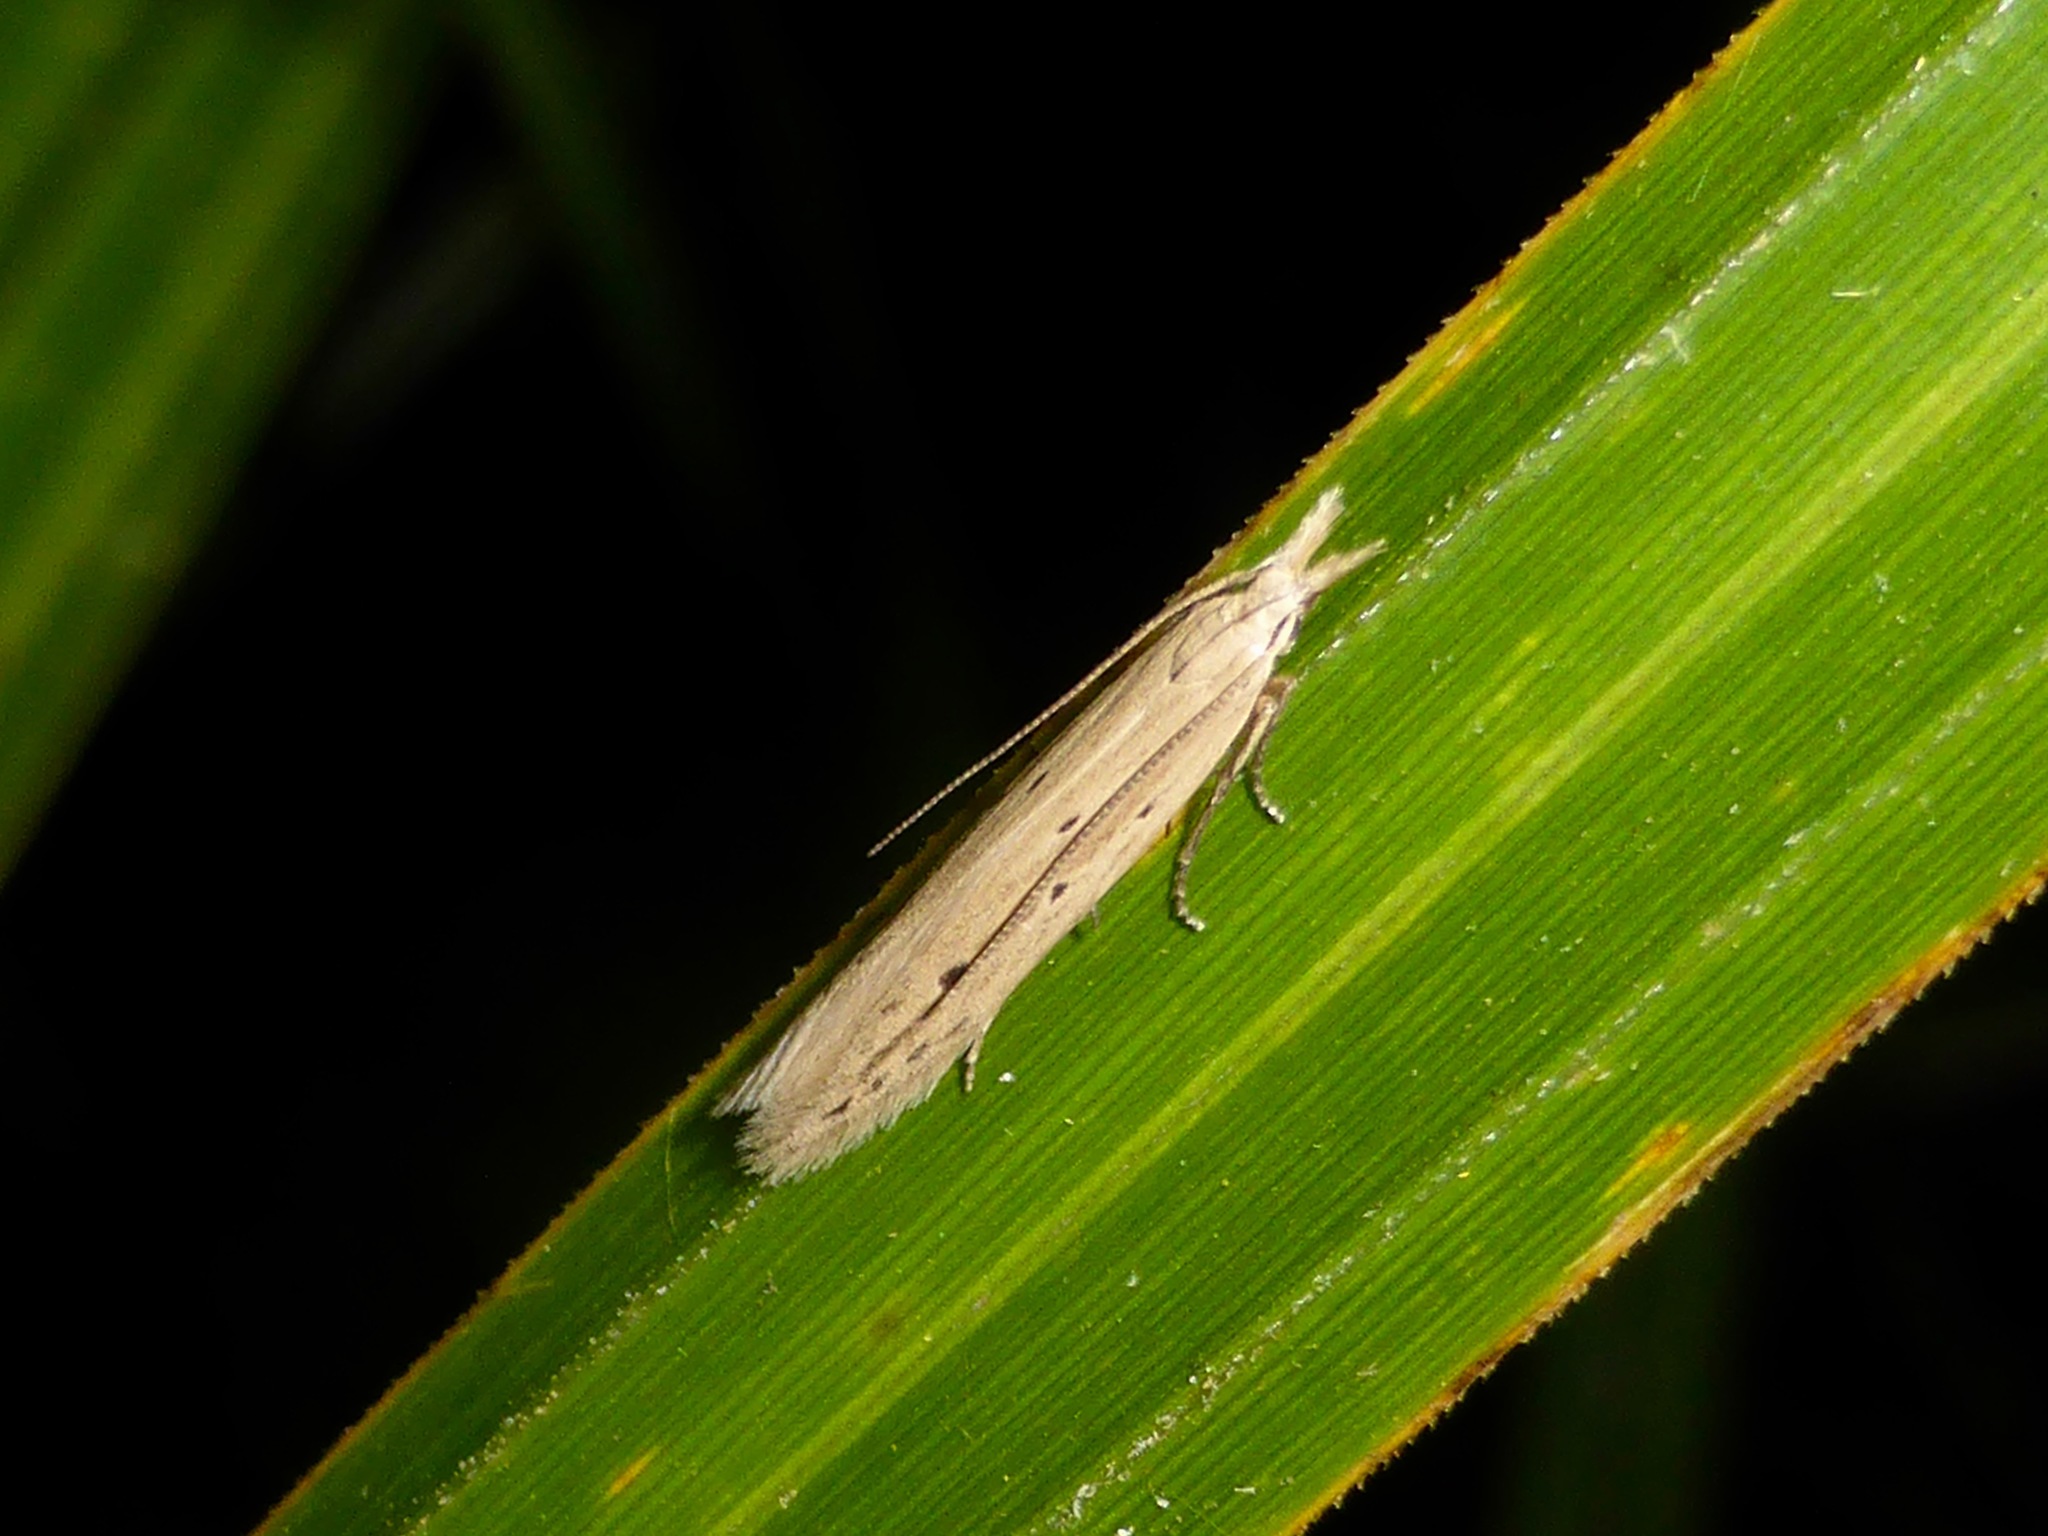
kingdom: Animalia
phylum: Arthropoda
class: Insecta
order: Lepidoptera
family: Gelechiidae
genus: Epiphthora
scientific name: Epiphthora calamogonus
